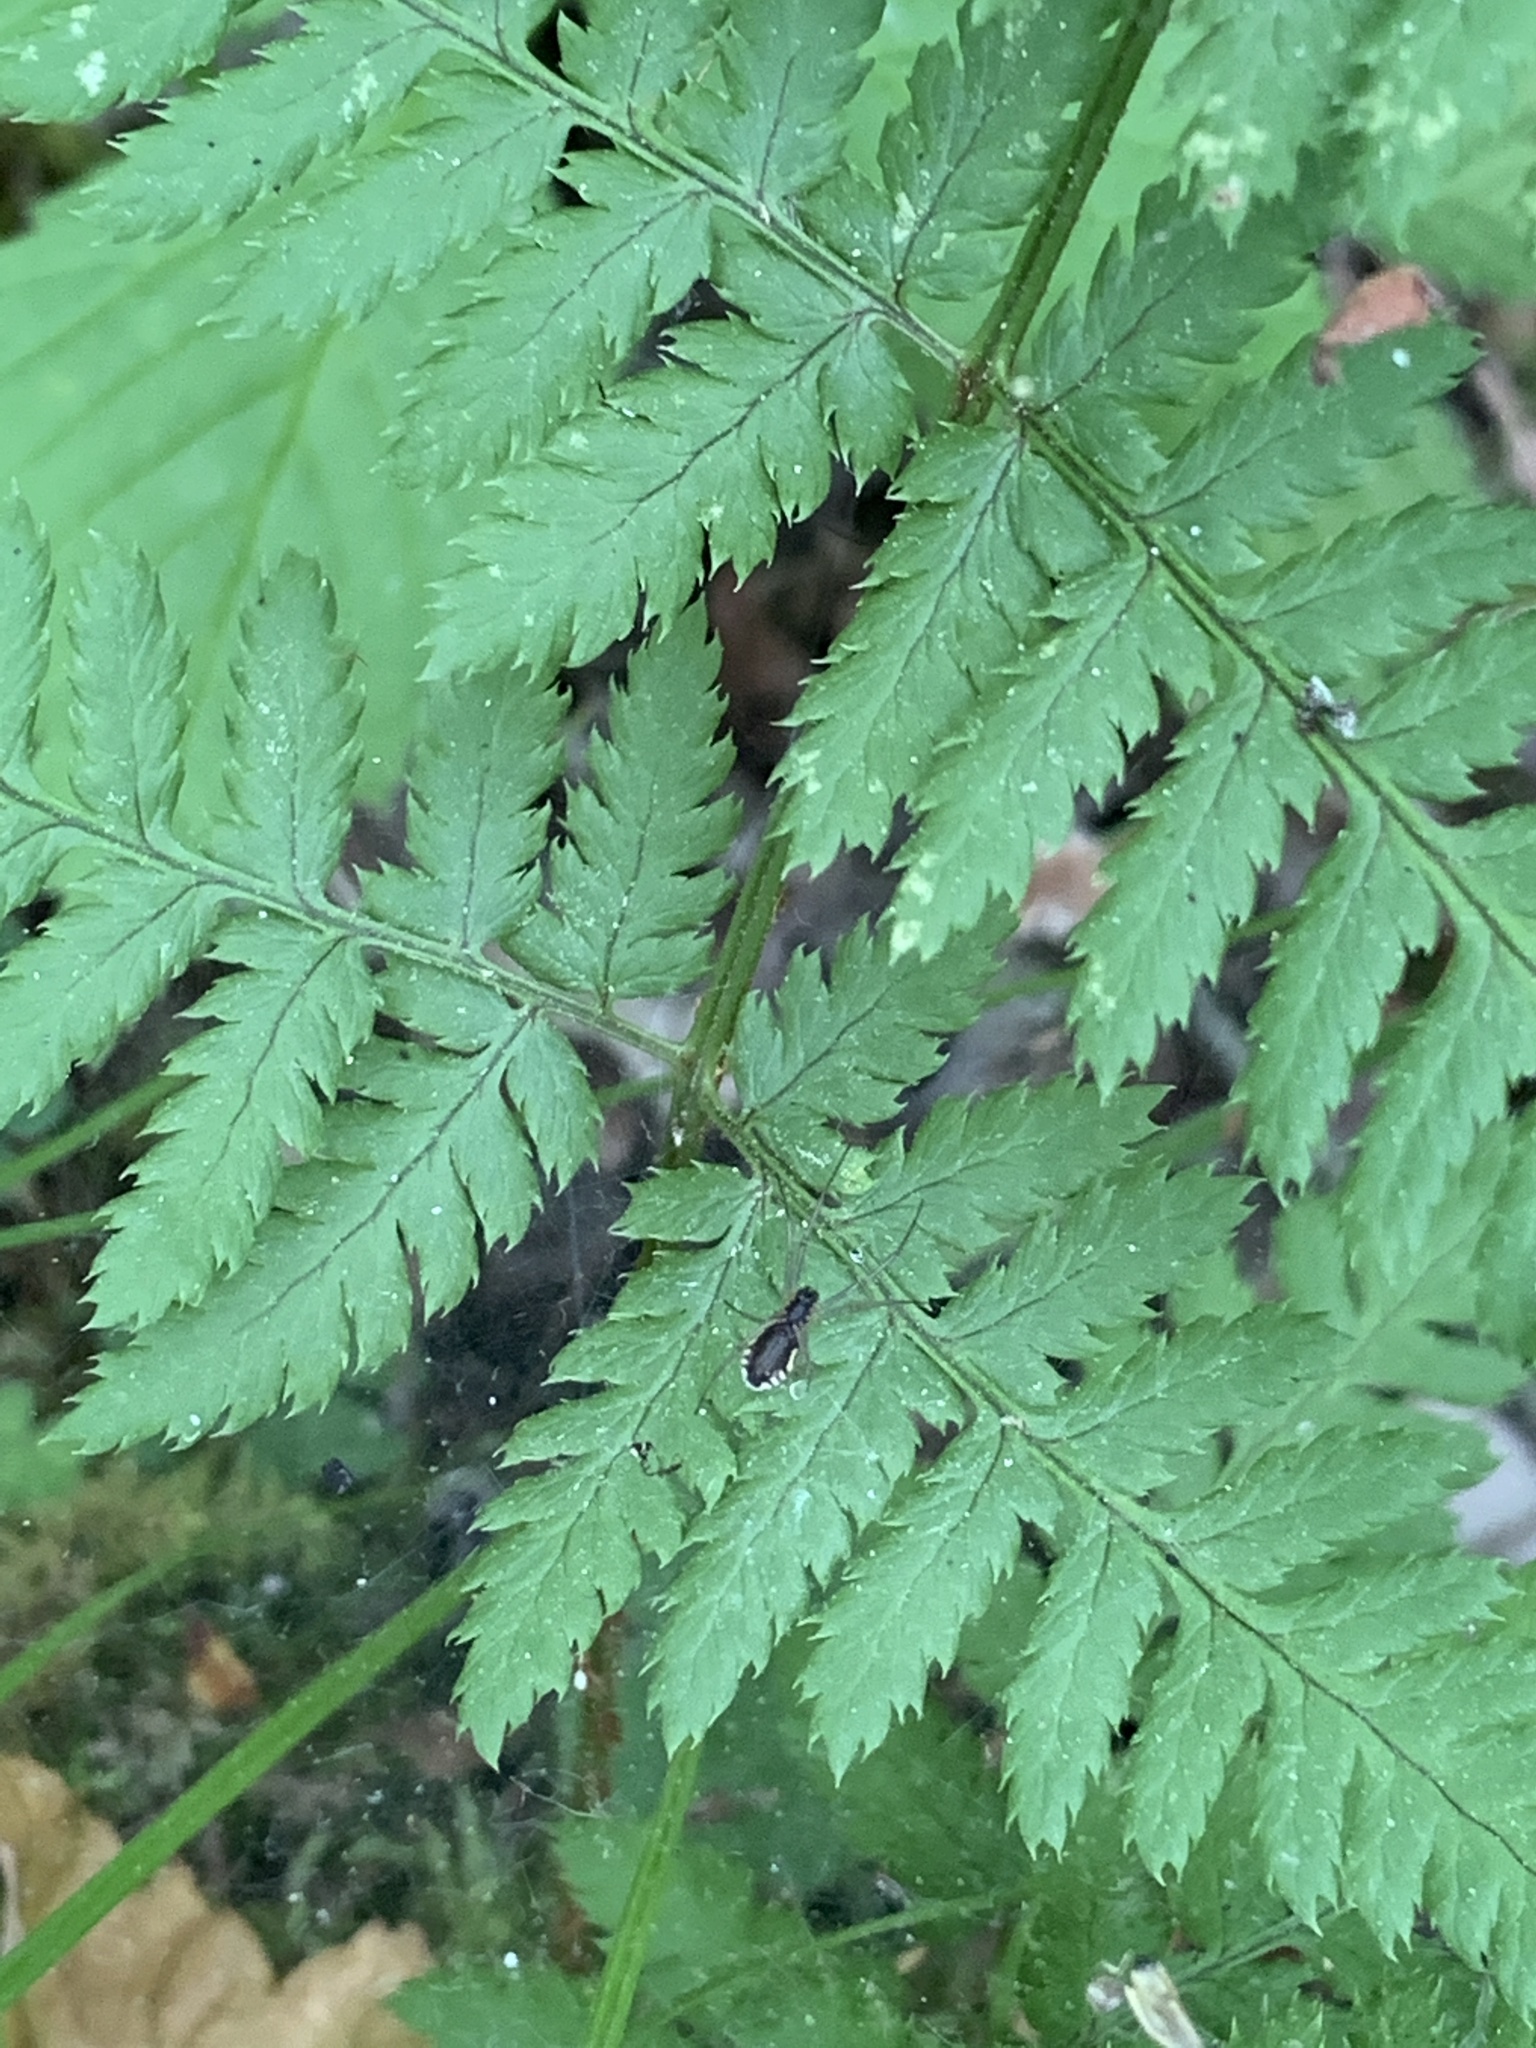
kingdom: Plantae
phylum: Tracheophyta
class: Polypodiopsida
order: Polypodiales
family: Dryopteridaceae
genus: Dryopteris
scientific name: Dryopteris carthusiana
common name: Narrow buckler-fern
